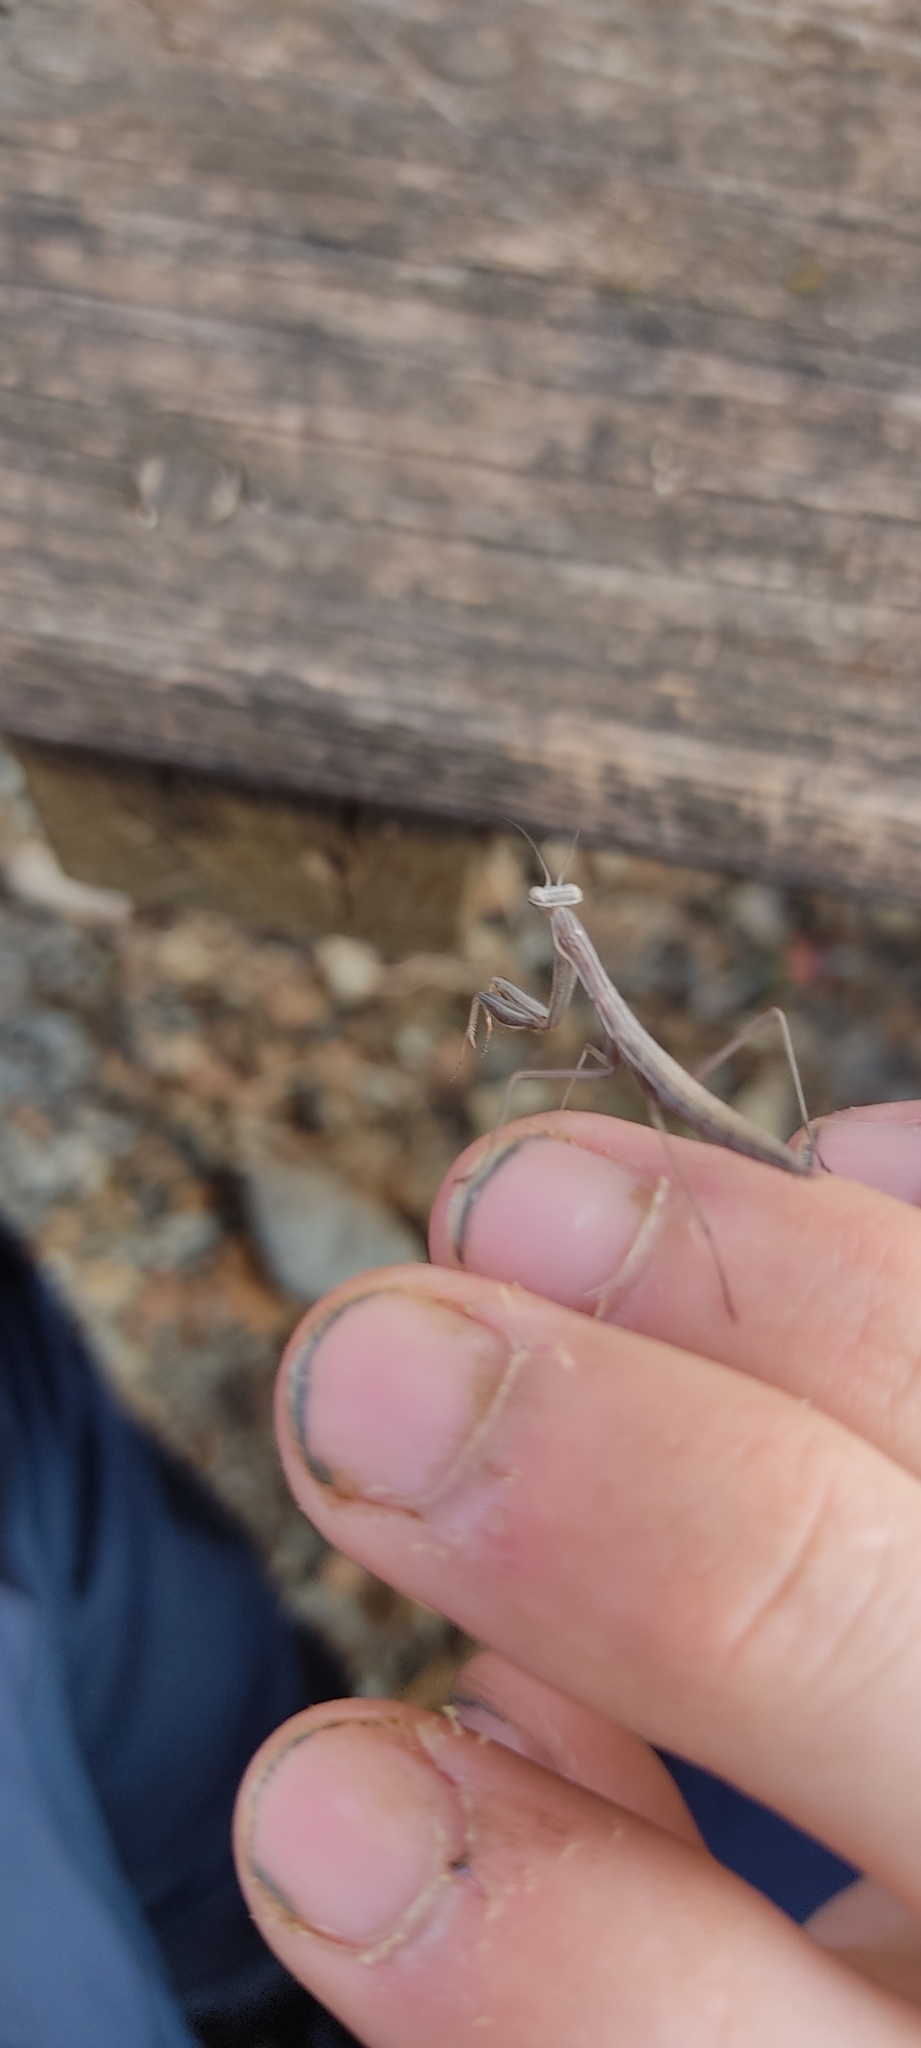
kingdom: Animalia
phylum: Arthropoda
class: Insecta
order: Mantodea
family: Mantidae
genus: Mantis
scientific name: Mantis religiosa
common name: Praying mantis
